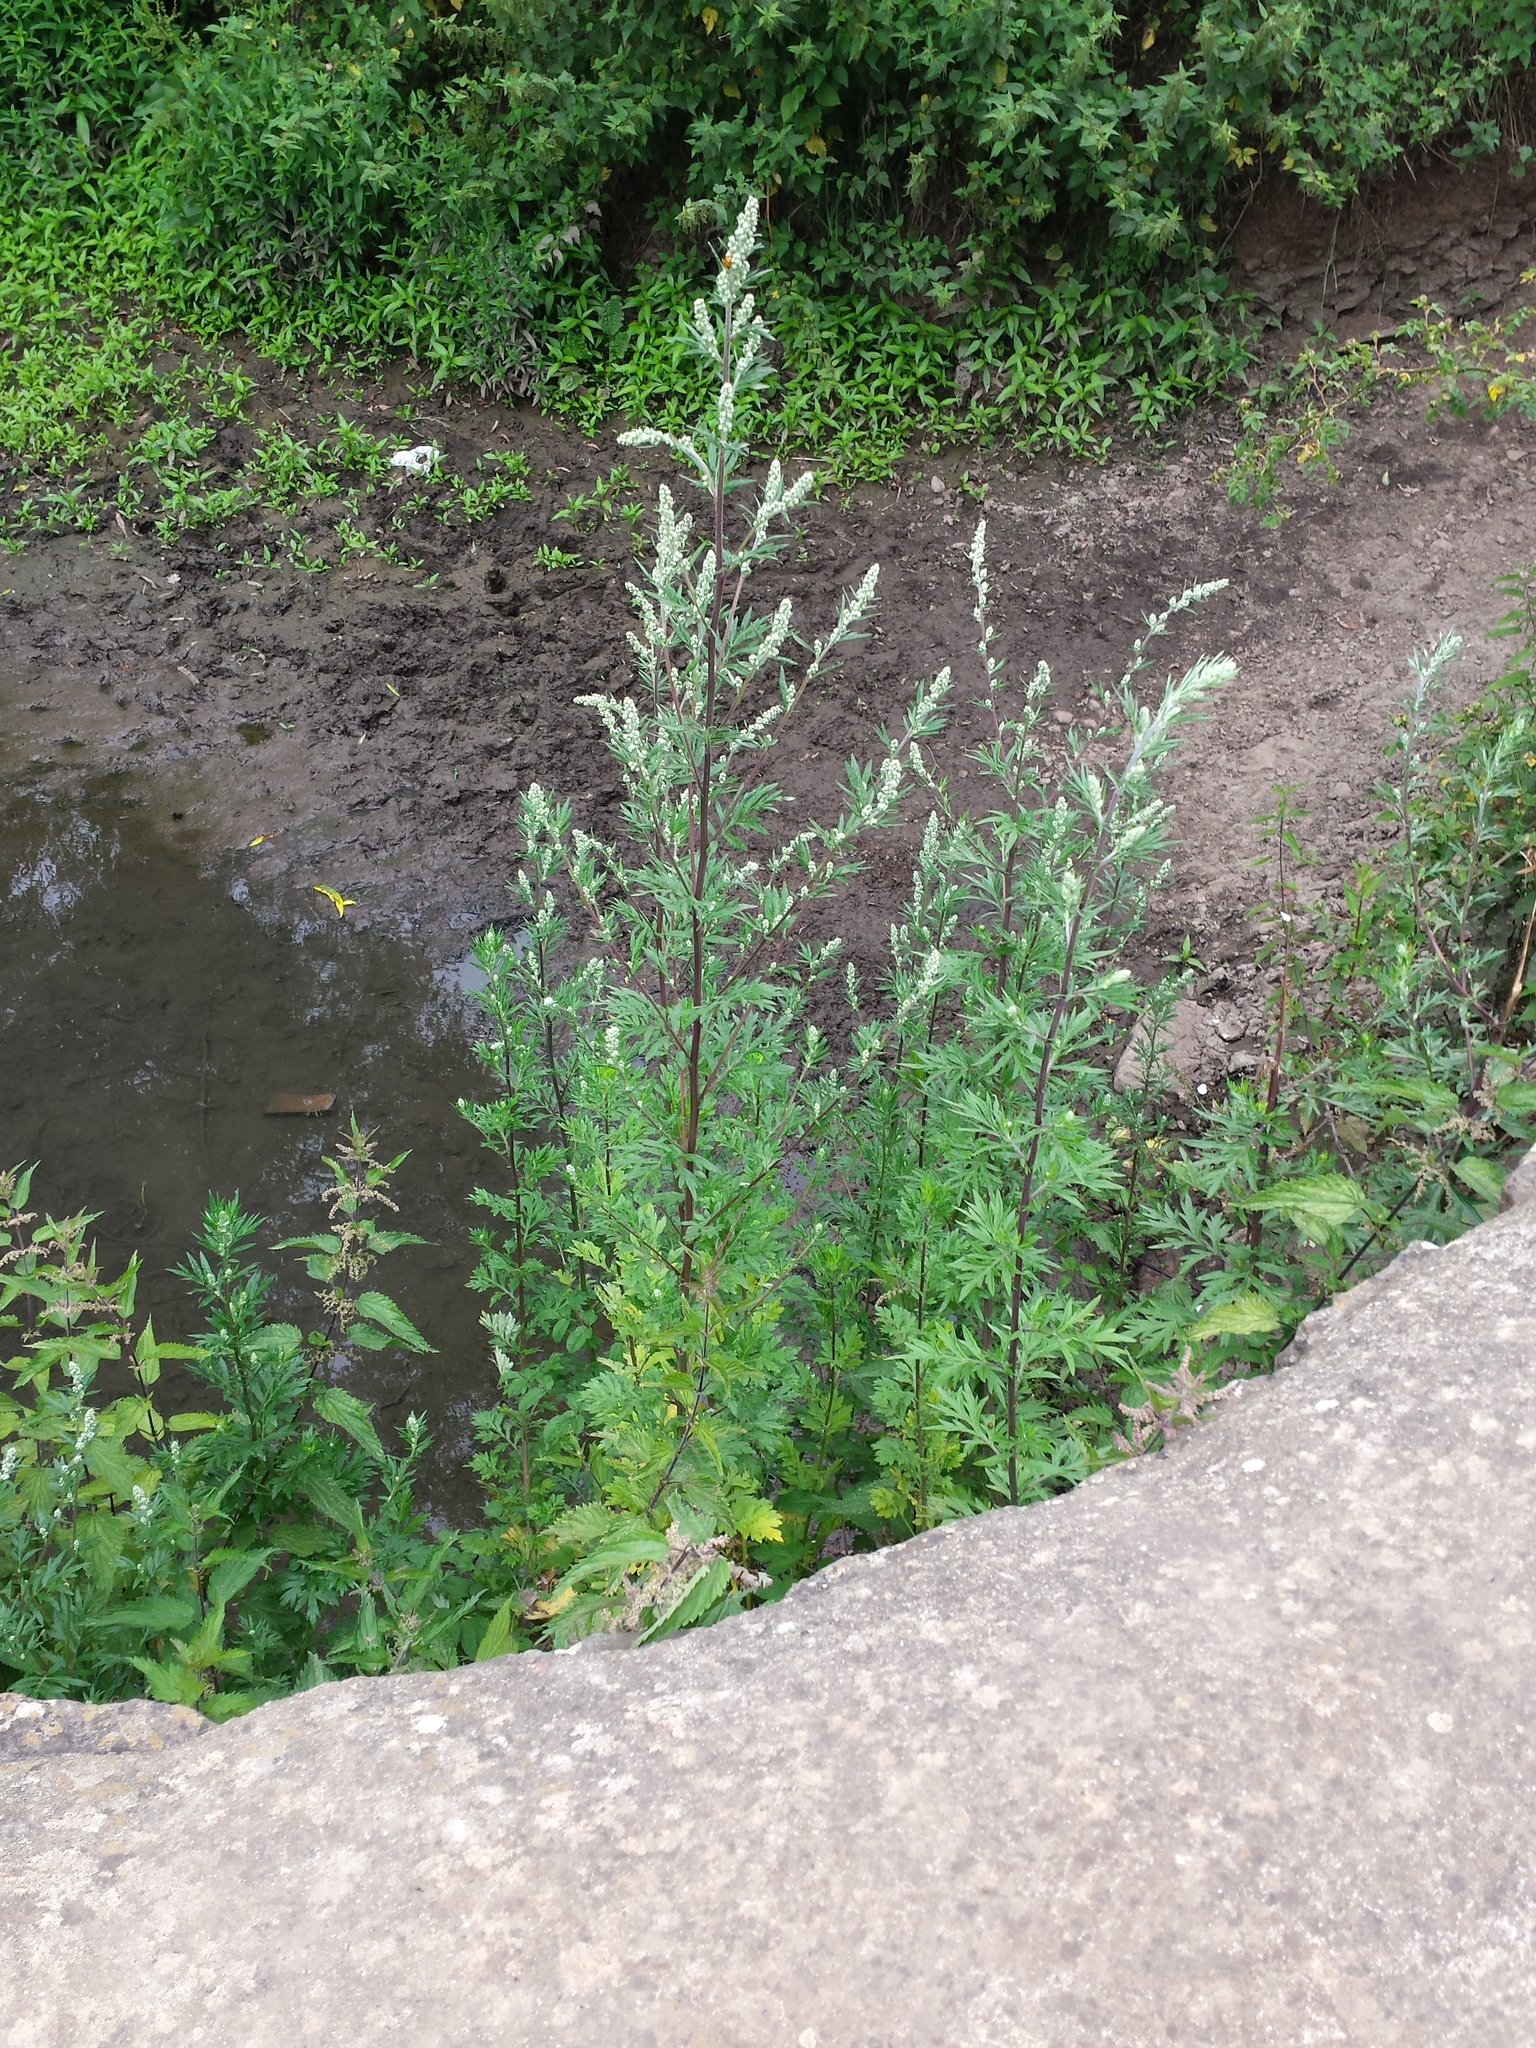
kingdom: Plantae
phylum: Tracheophyta
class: Magnoliopsida
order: Asterales
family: Asteraceae
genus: Artemisia
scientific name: Artemisia vulgaris
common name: Mugwort
